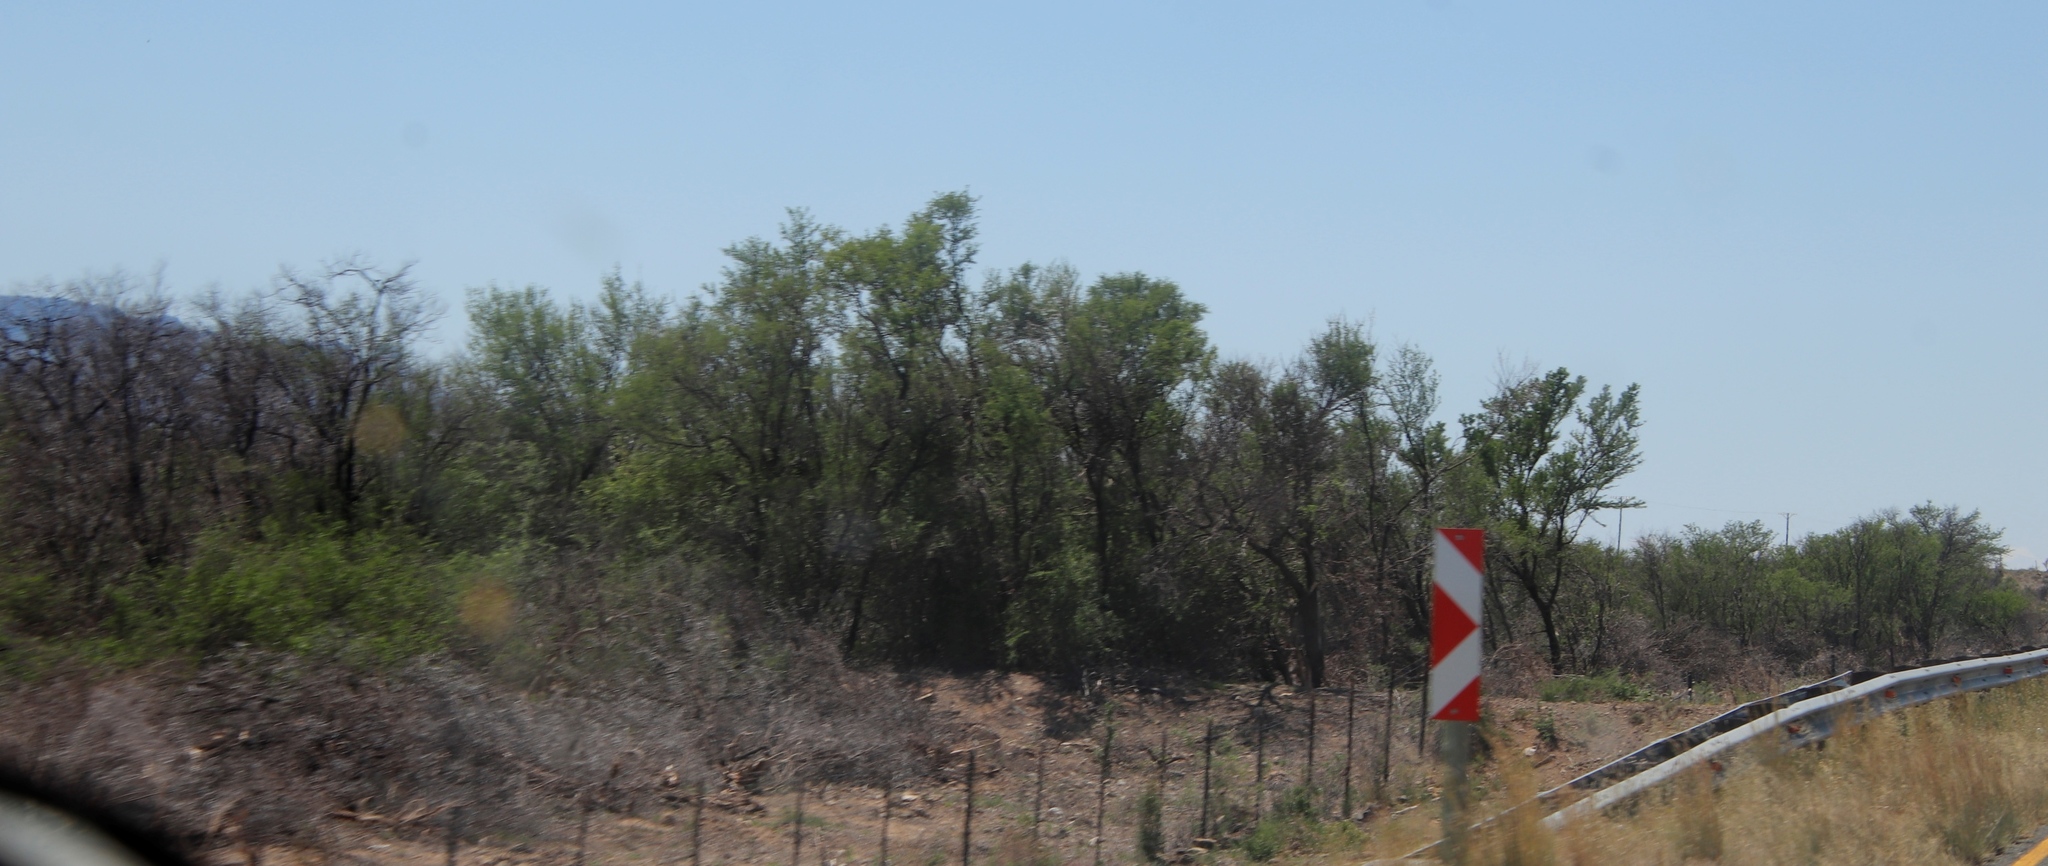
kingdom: Plantae
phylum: Tracheophyta
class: Magnoliopsida
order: Fabales
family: Fabaceae
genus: Vachellia
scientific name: Vachellia karroo
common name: Sweet thorn
